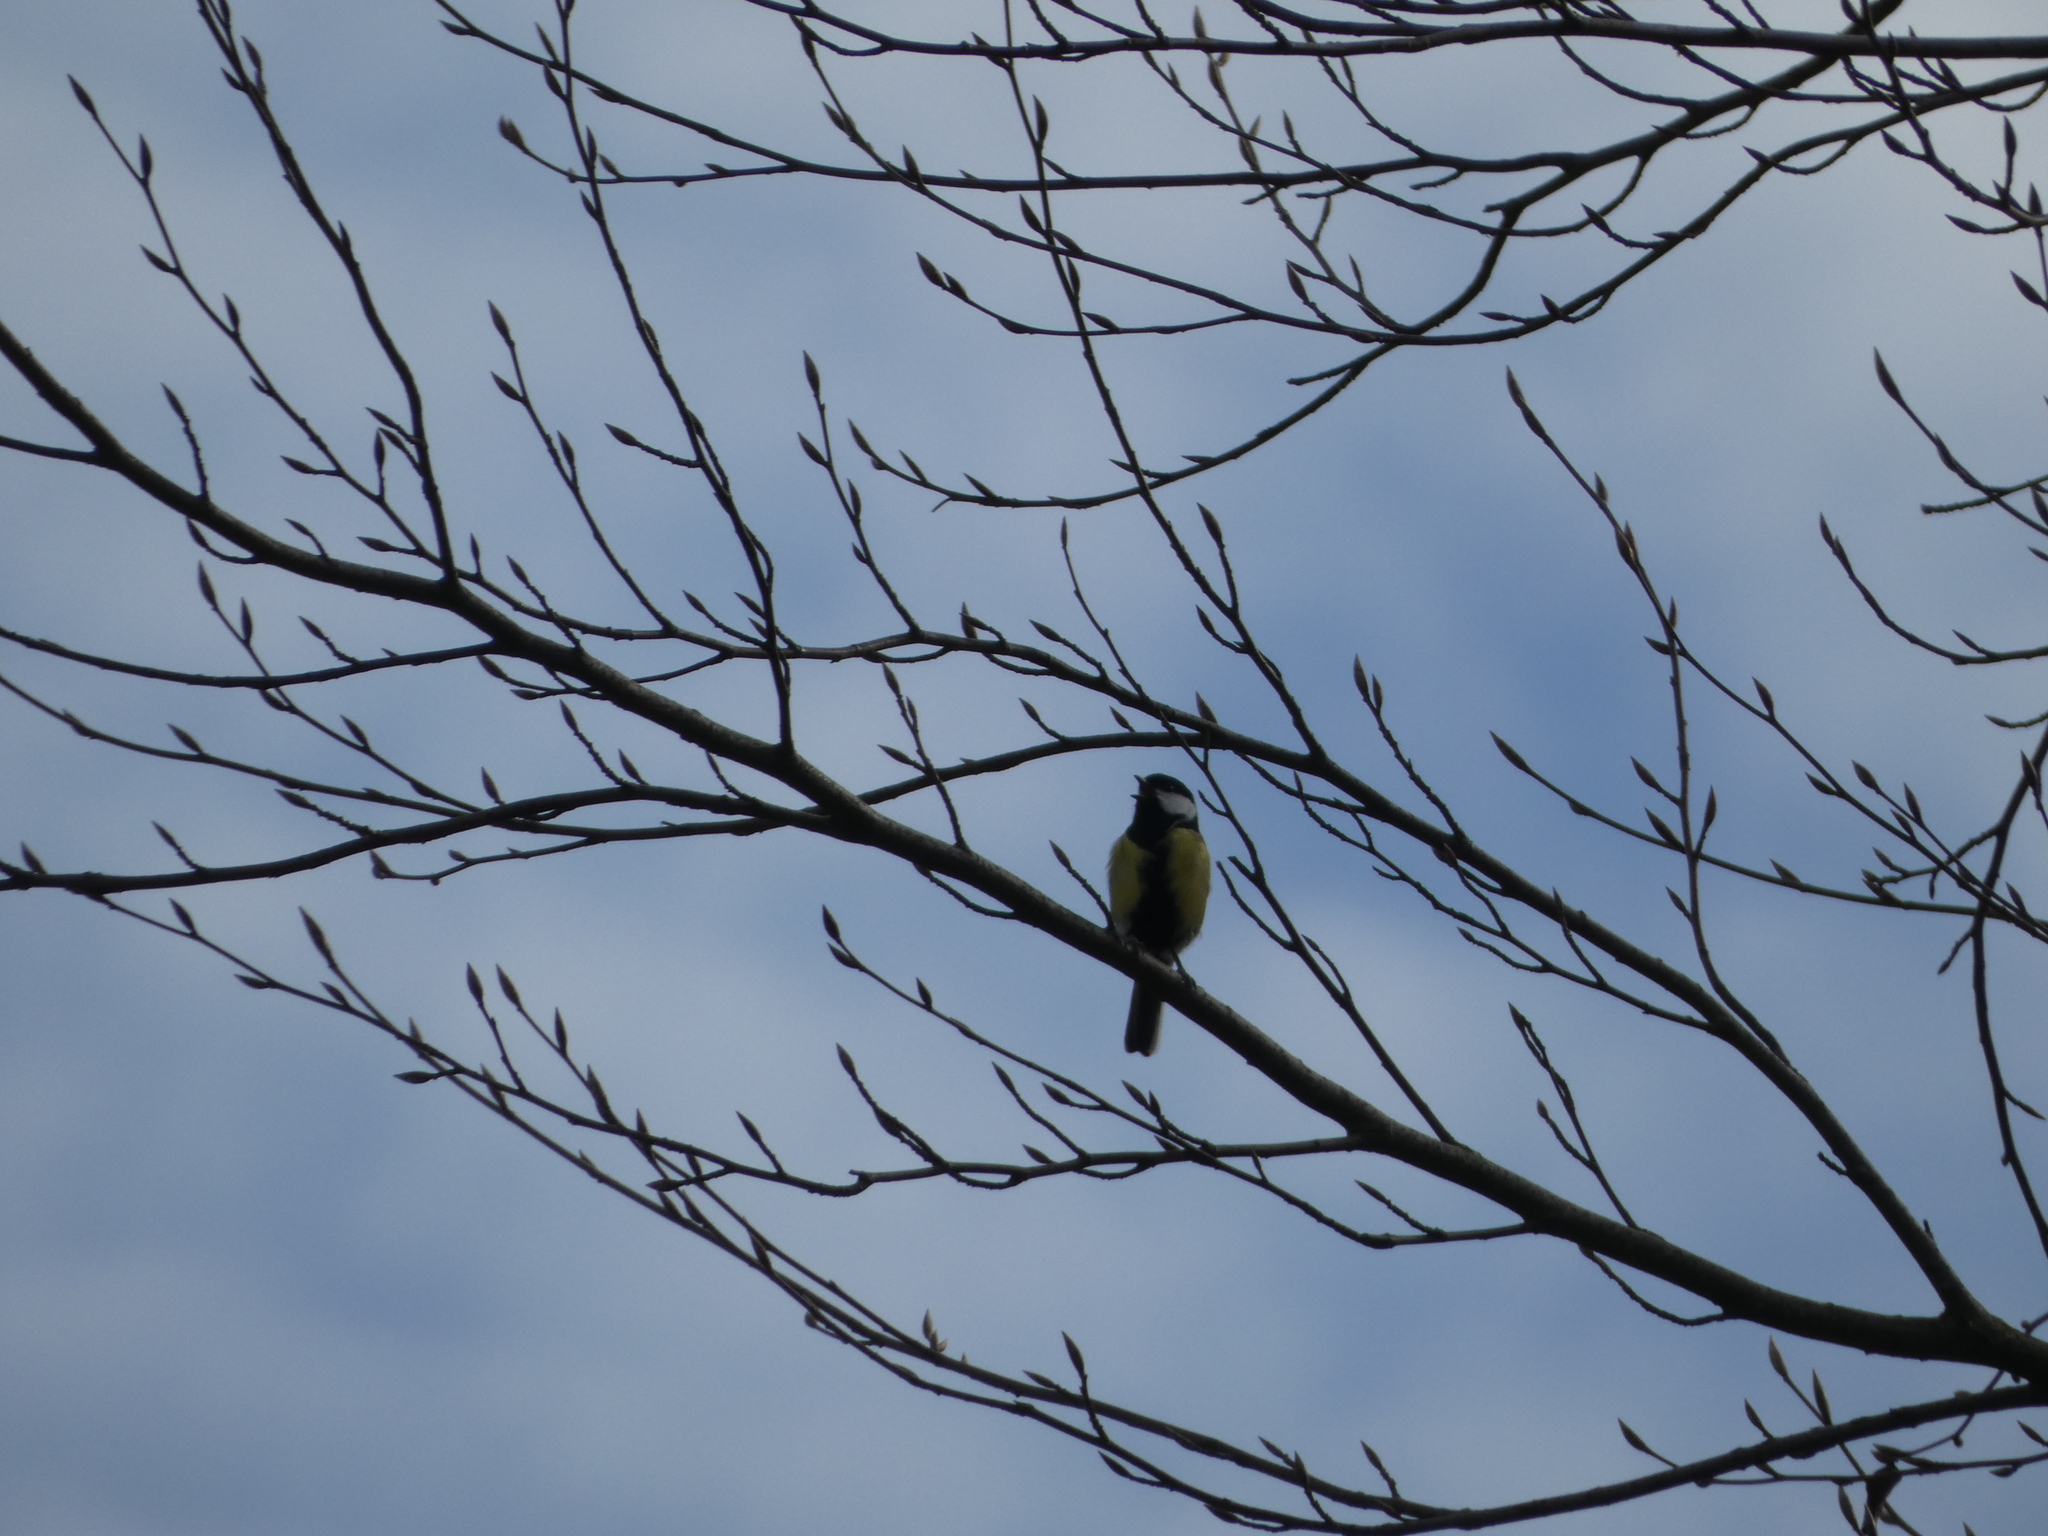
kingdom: Animalia
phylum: Chordata
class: Aves
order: Passeriformes
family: Paridae
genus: Parus
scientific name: Parus major
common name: Great tit
